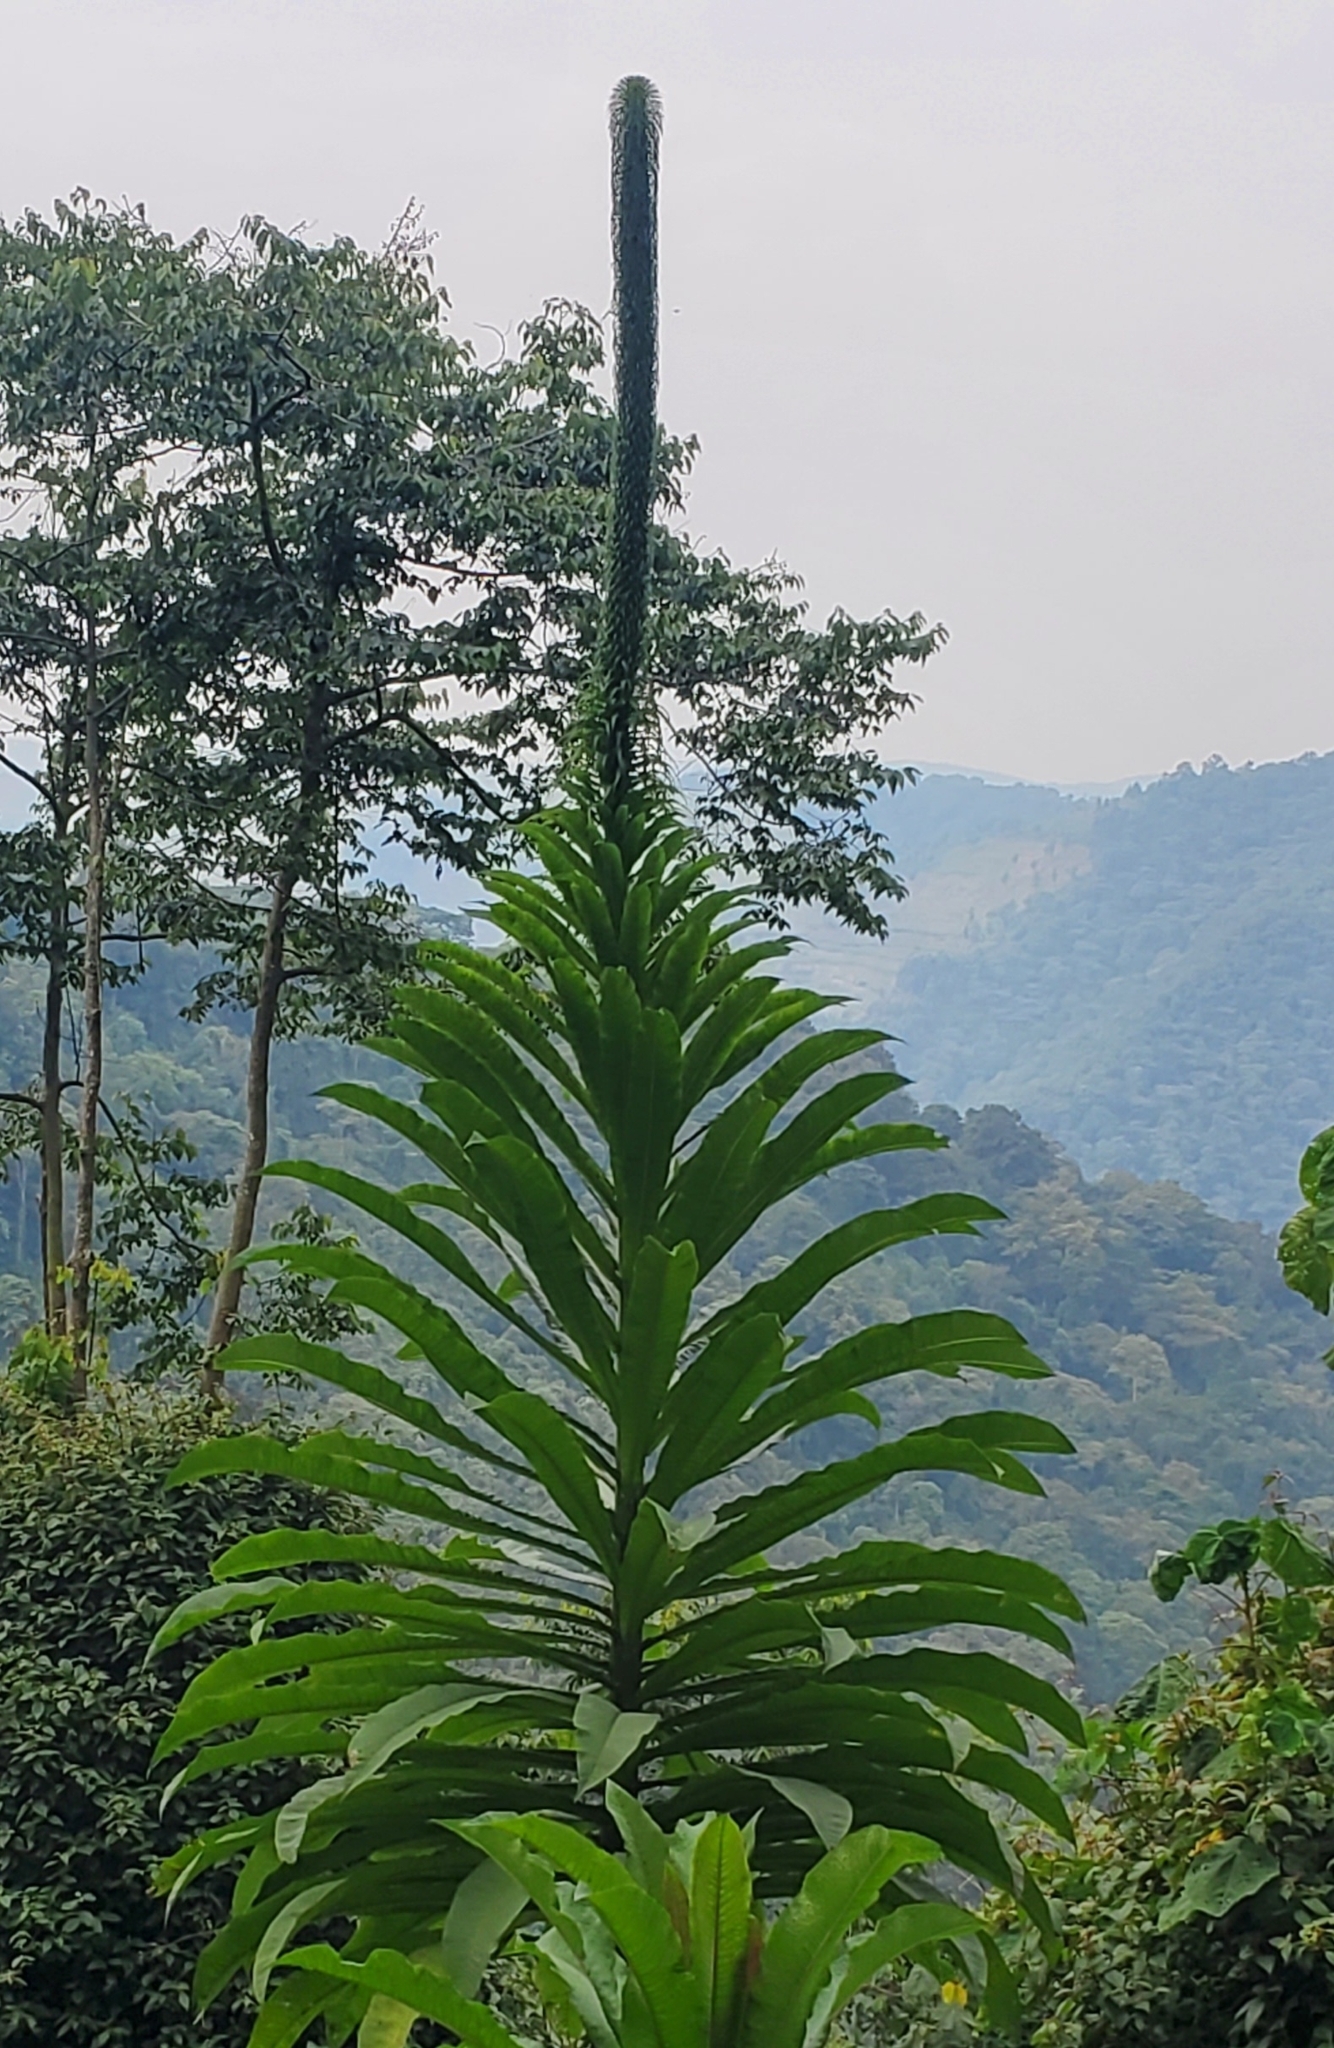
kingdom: Plantae
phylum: Tracheophyta
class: Magnoliopsida
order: Asterales
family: Campanulaceae
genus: Lobelia
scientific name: Lobelia giberroa
